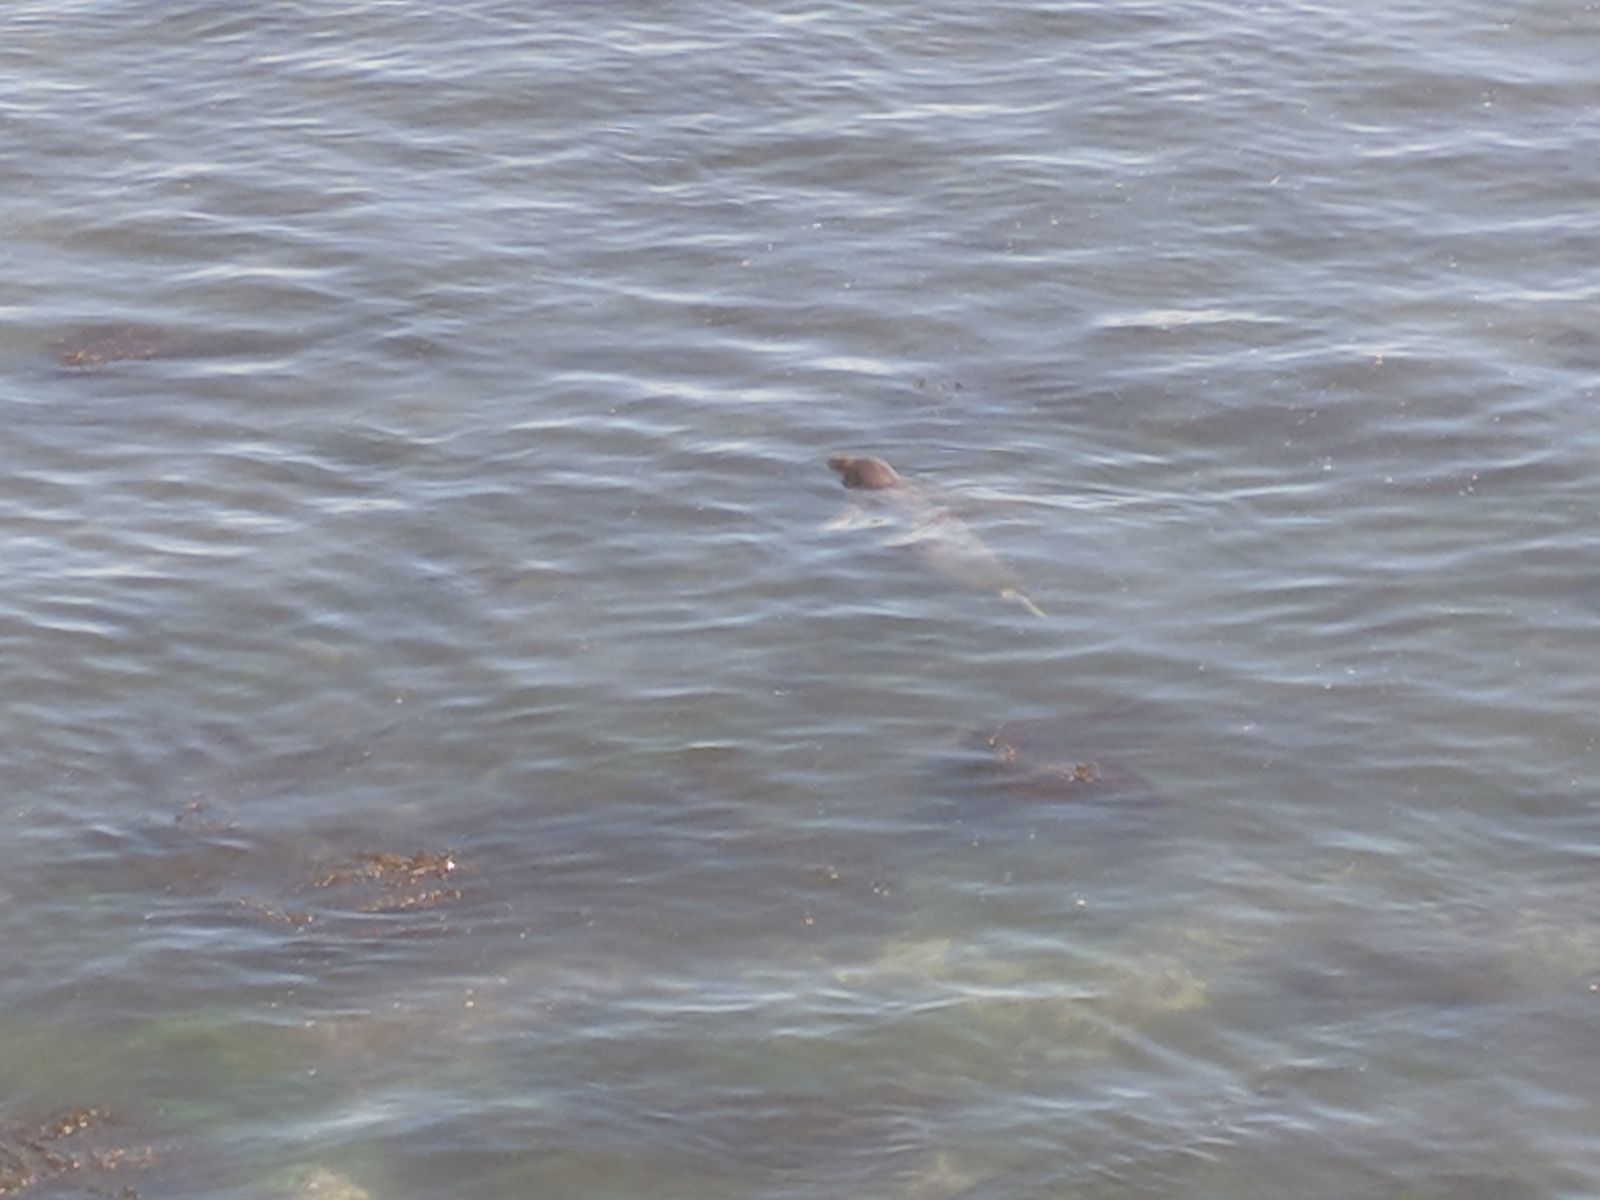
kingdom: Animalia
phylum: Chordata
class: Mammalia
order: Carnivora
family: Phocidae
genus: Phoca
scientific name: Phoca vitulina
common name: Harbor seal
